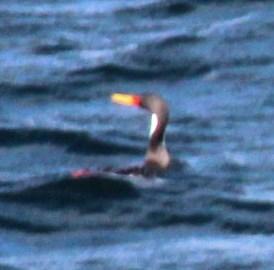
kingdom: Animalia
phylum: Chordata
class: Aves
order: Suliformes
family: Phalacrocoracidae
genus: Phalacrocorax
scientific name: Phalacrocorax gaimardi
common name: Red-legged cormorant
